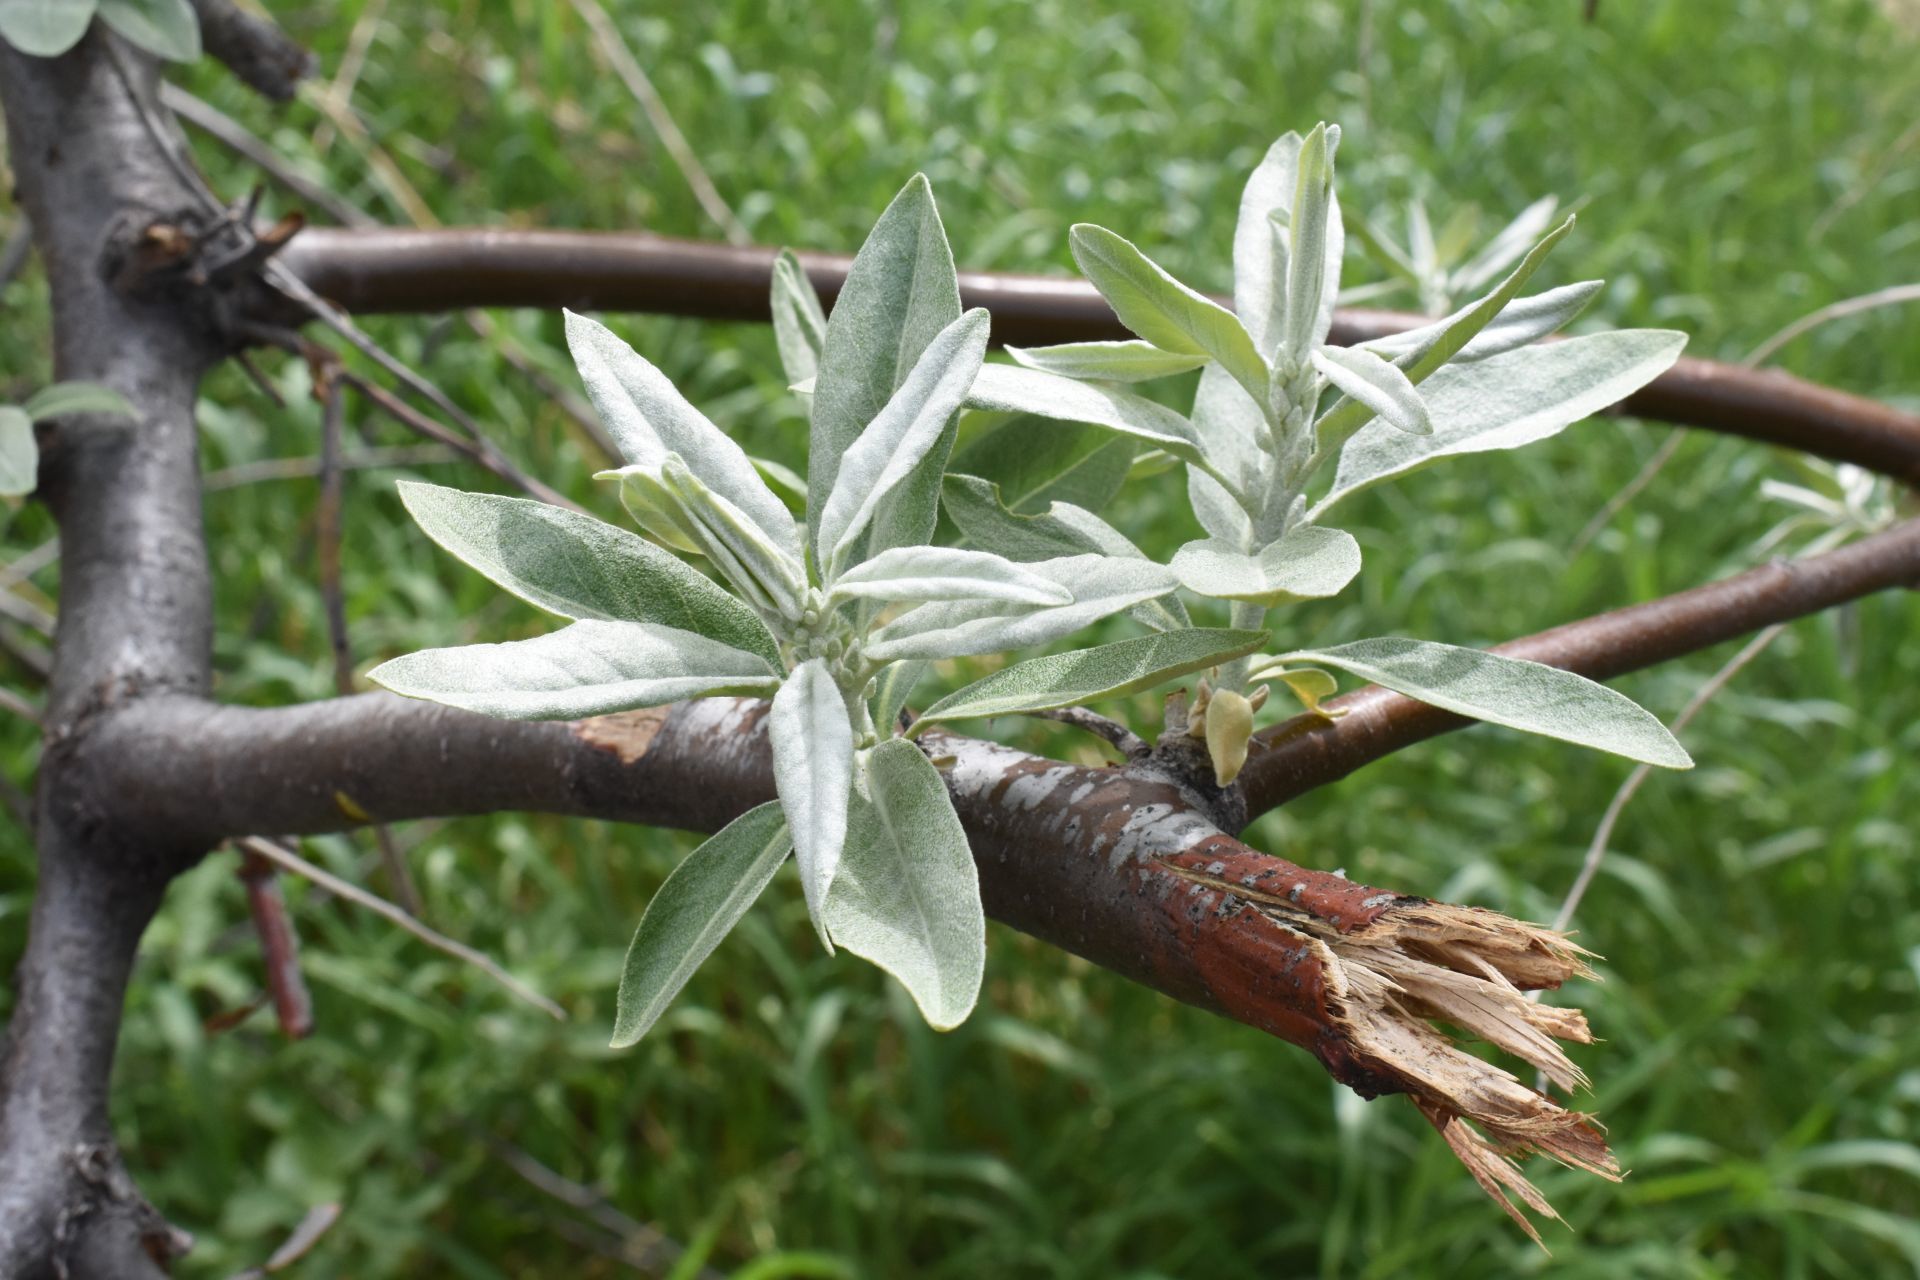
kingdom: Plantae
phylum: Tracheophyta
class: Magnoliopsida
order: Rosales
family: Elaeagnaceae
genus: Elaeagnus
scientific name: Elaeagnus angustifolia
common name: Russian olive
